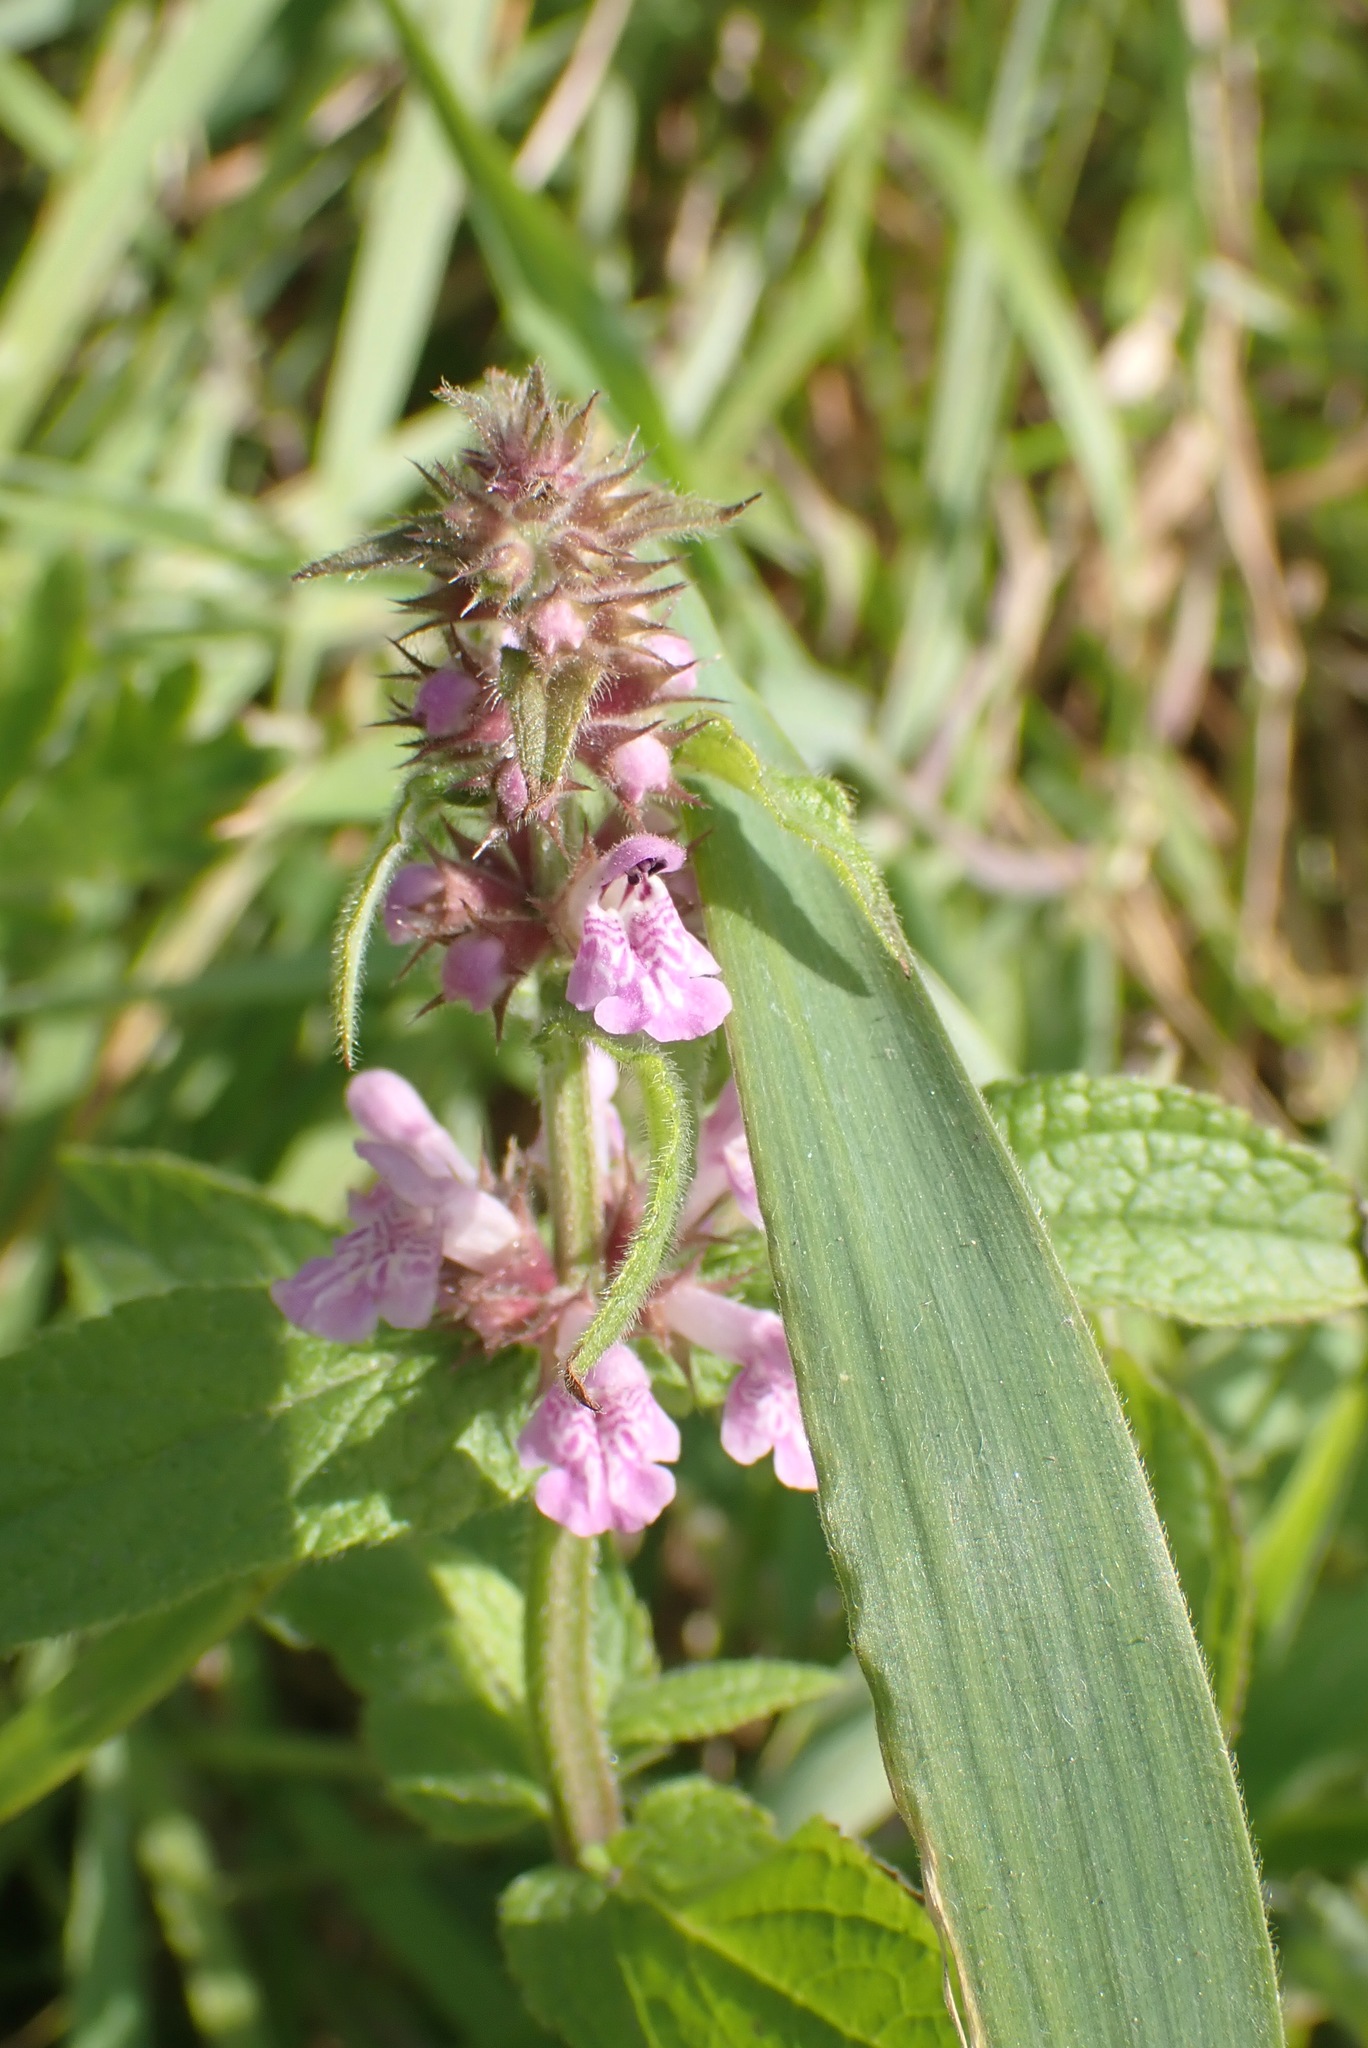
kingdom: Plantae
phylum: Tracheophyta
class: Magnoliopsida
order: Lamiales
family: Lamiaceae
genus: Stachys
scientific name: Stachys palustris
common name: Marsh woundwort
